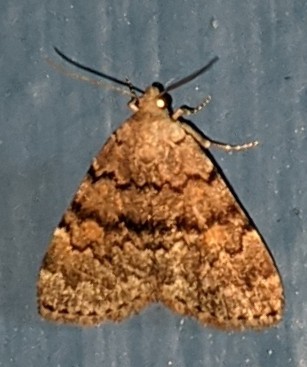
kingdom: Animalia
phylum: Arthropoda
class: Insecta
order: Lepidoptera
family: Erebidae
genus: Idia
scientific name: Idia aemula
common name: Common idia moth
